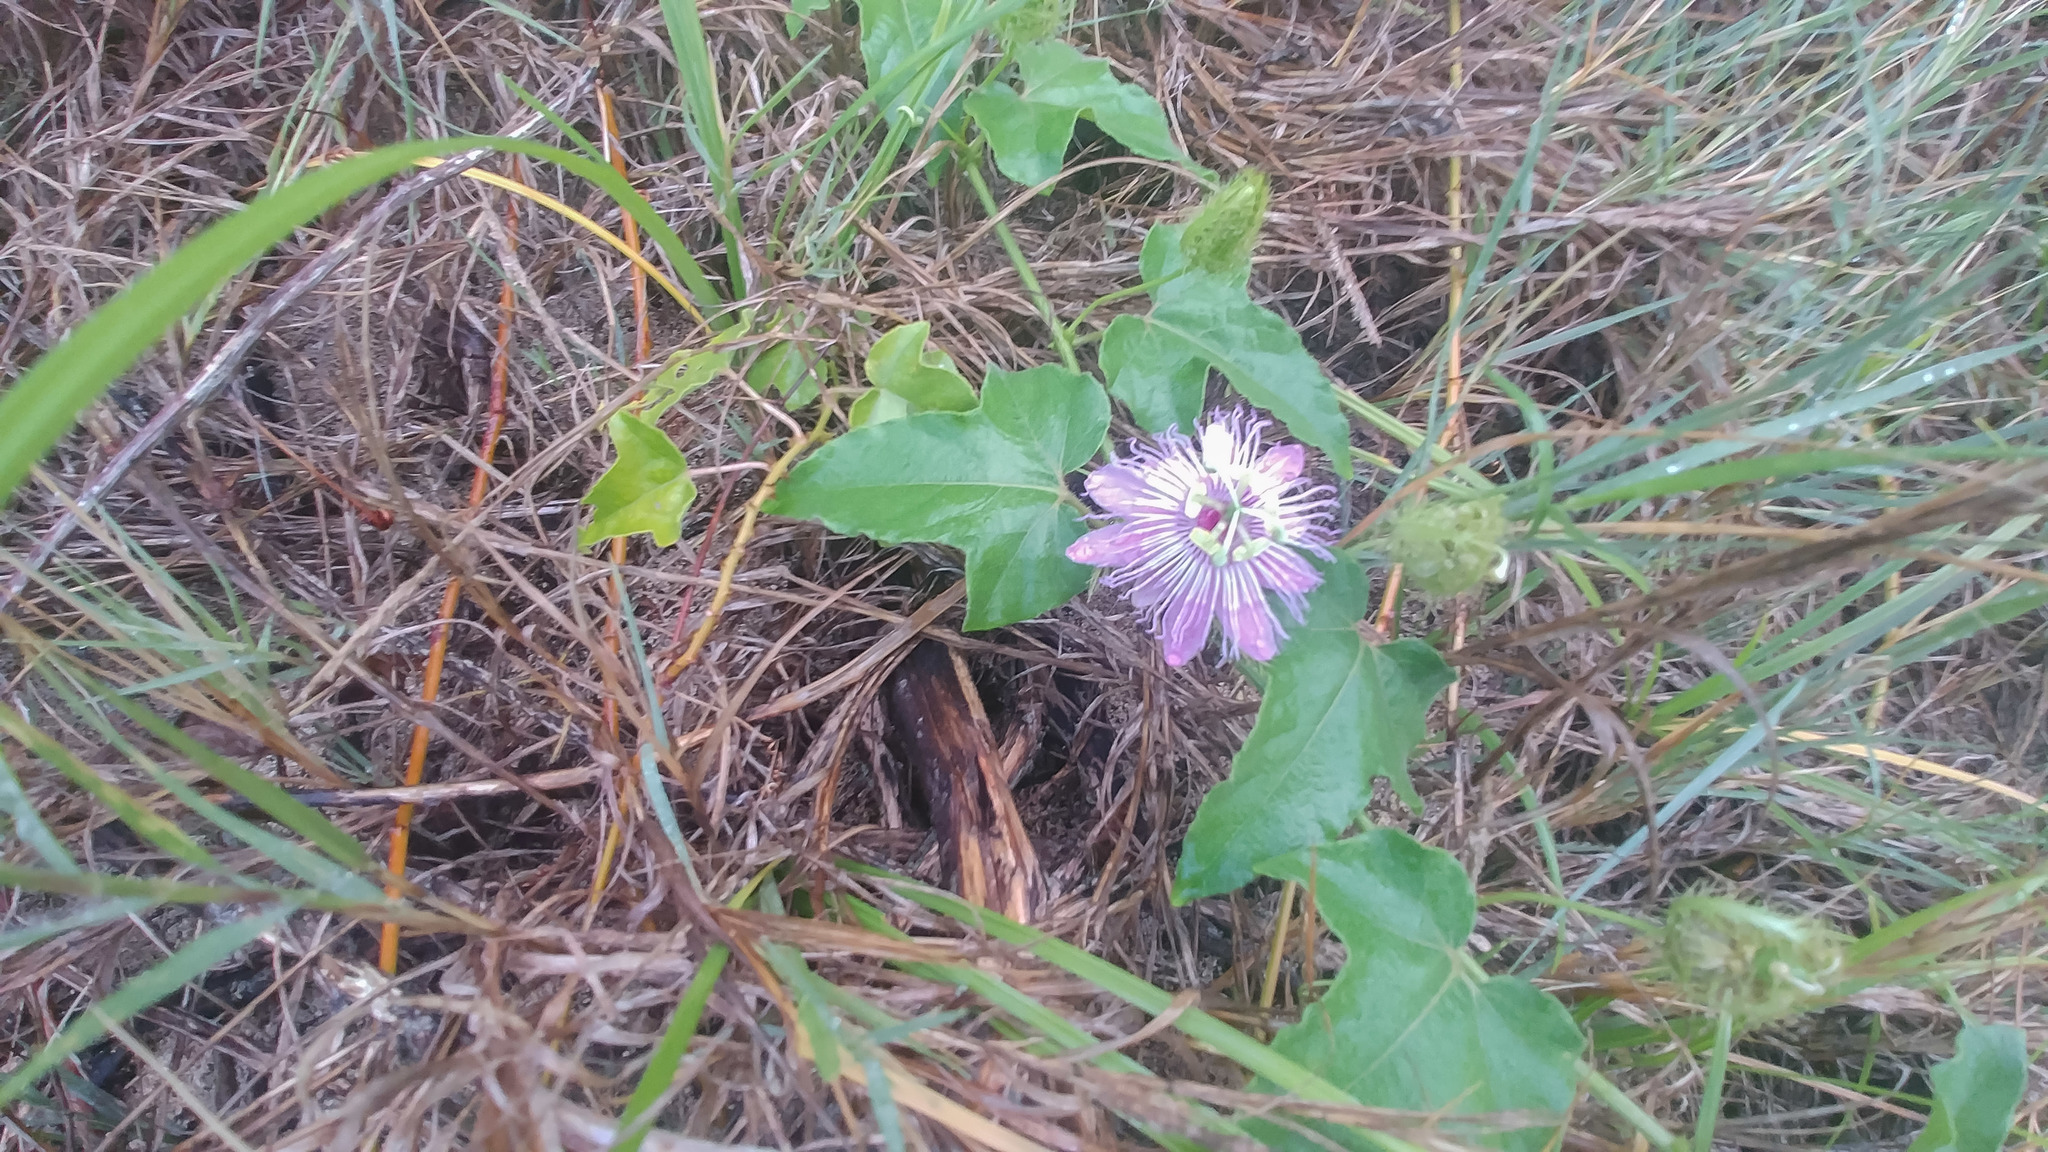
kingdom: Plantae
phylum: Tracheophyta
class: Magnoliopsida
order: Malpighiales
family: Passifloraceae
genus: Passiflora
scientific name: Passiflora ciliata
